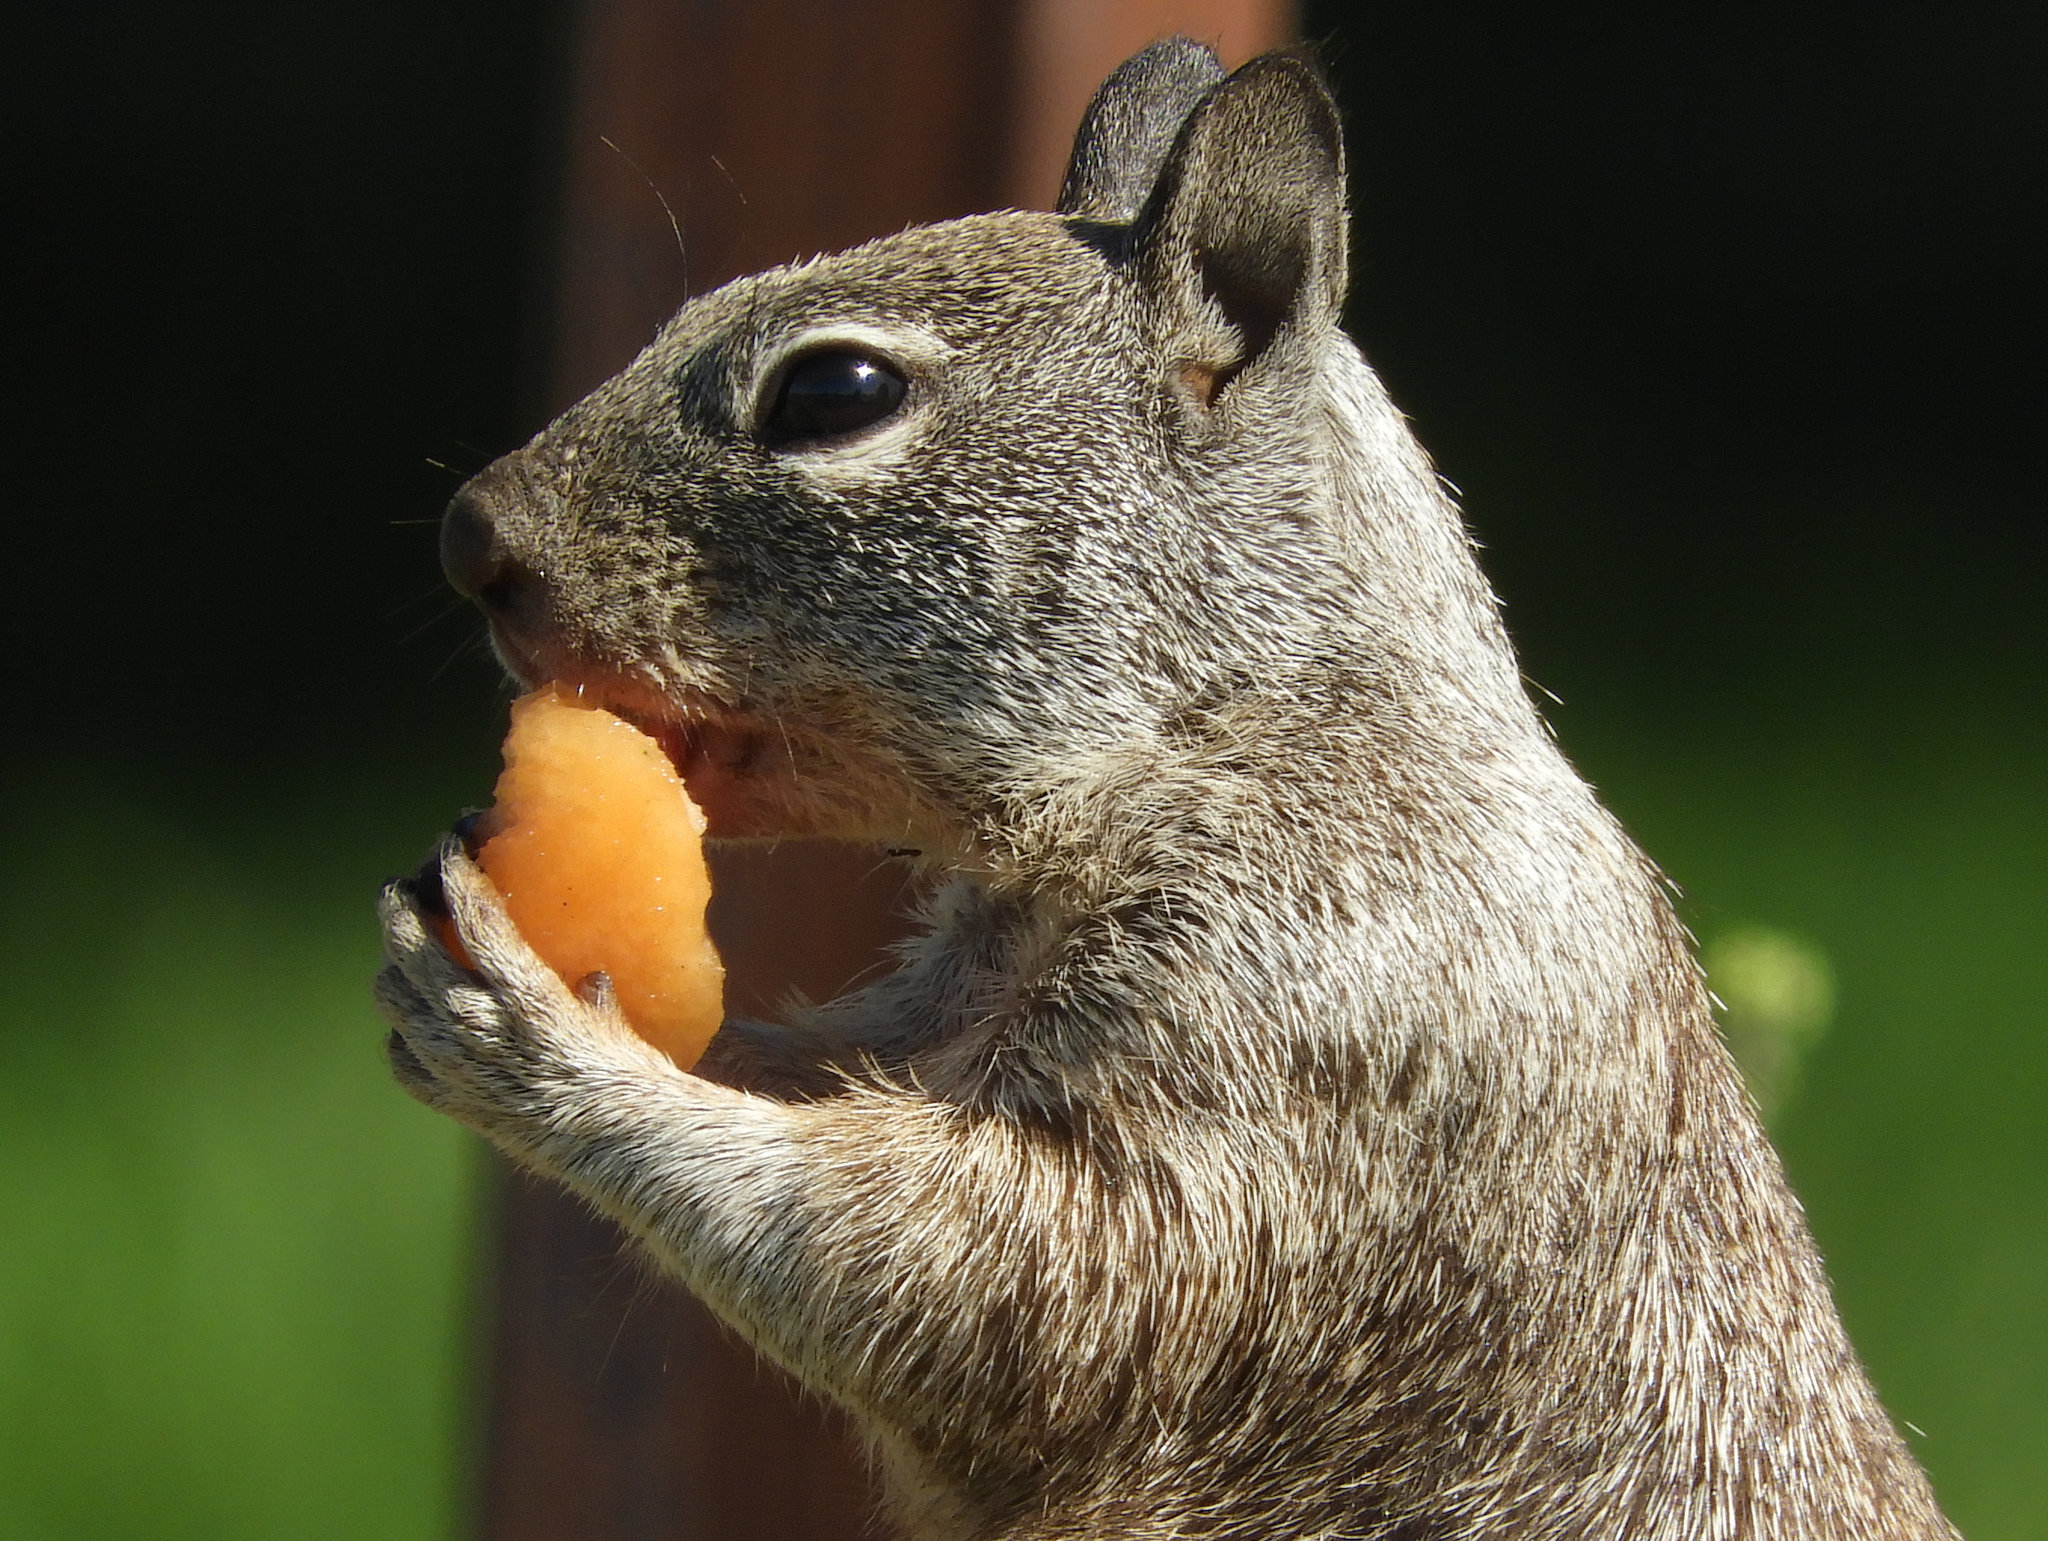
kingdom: Animalia
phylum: Chordata
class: Mammalia
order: Rodentia
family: Sciuridae
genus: Otospermophilus
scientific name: Otospermophilus beecheyi
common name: California ground squirrel
